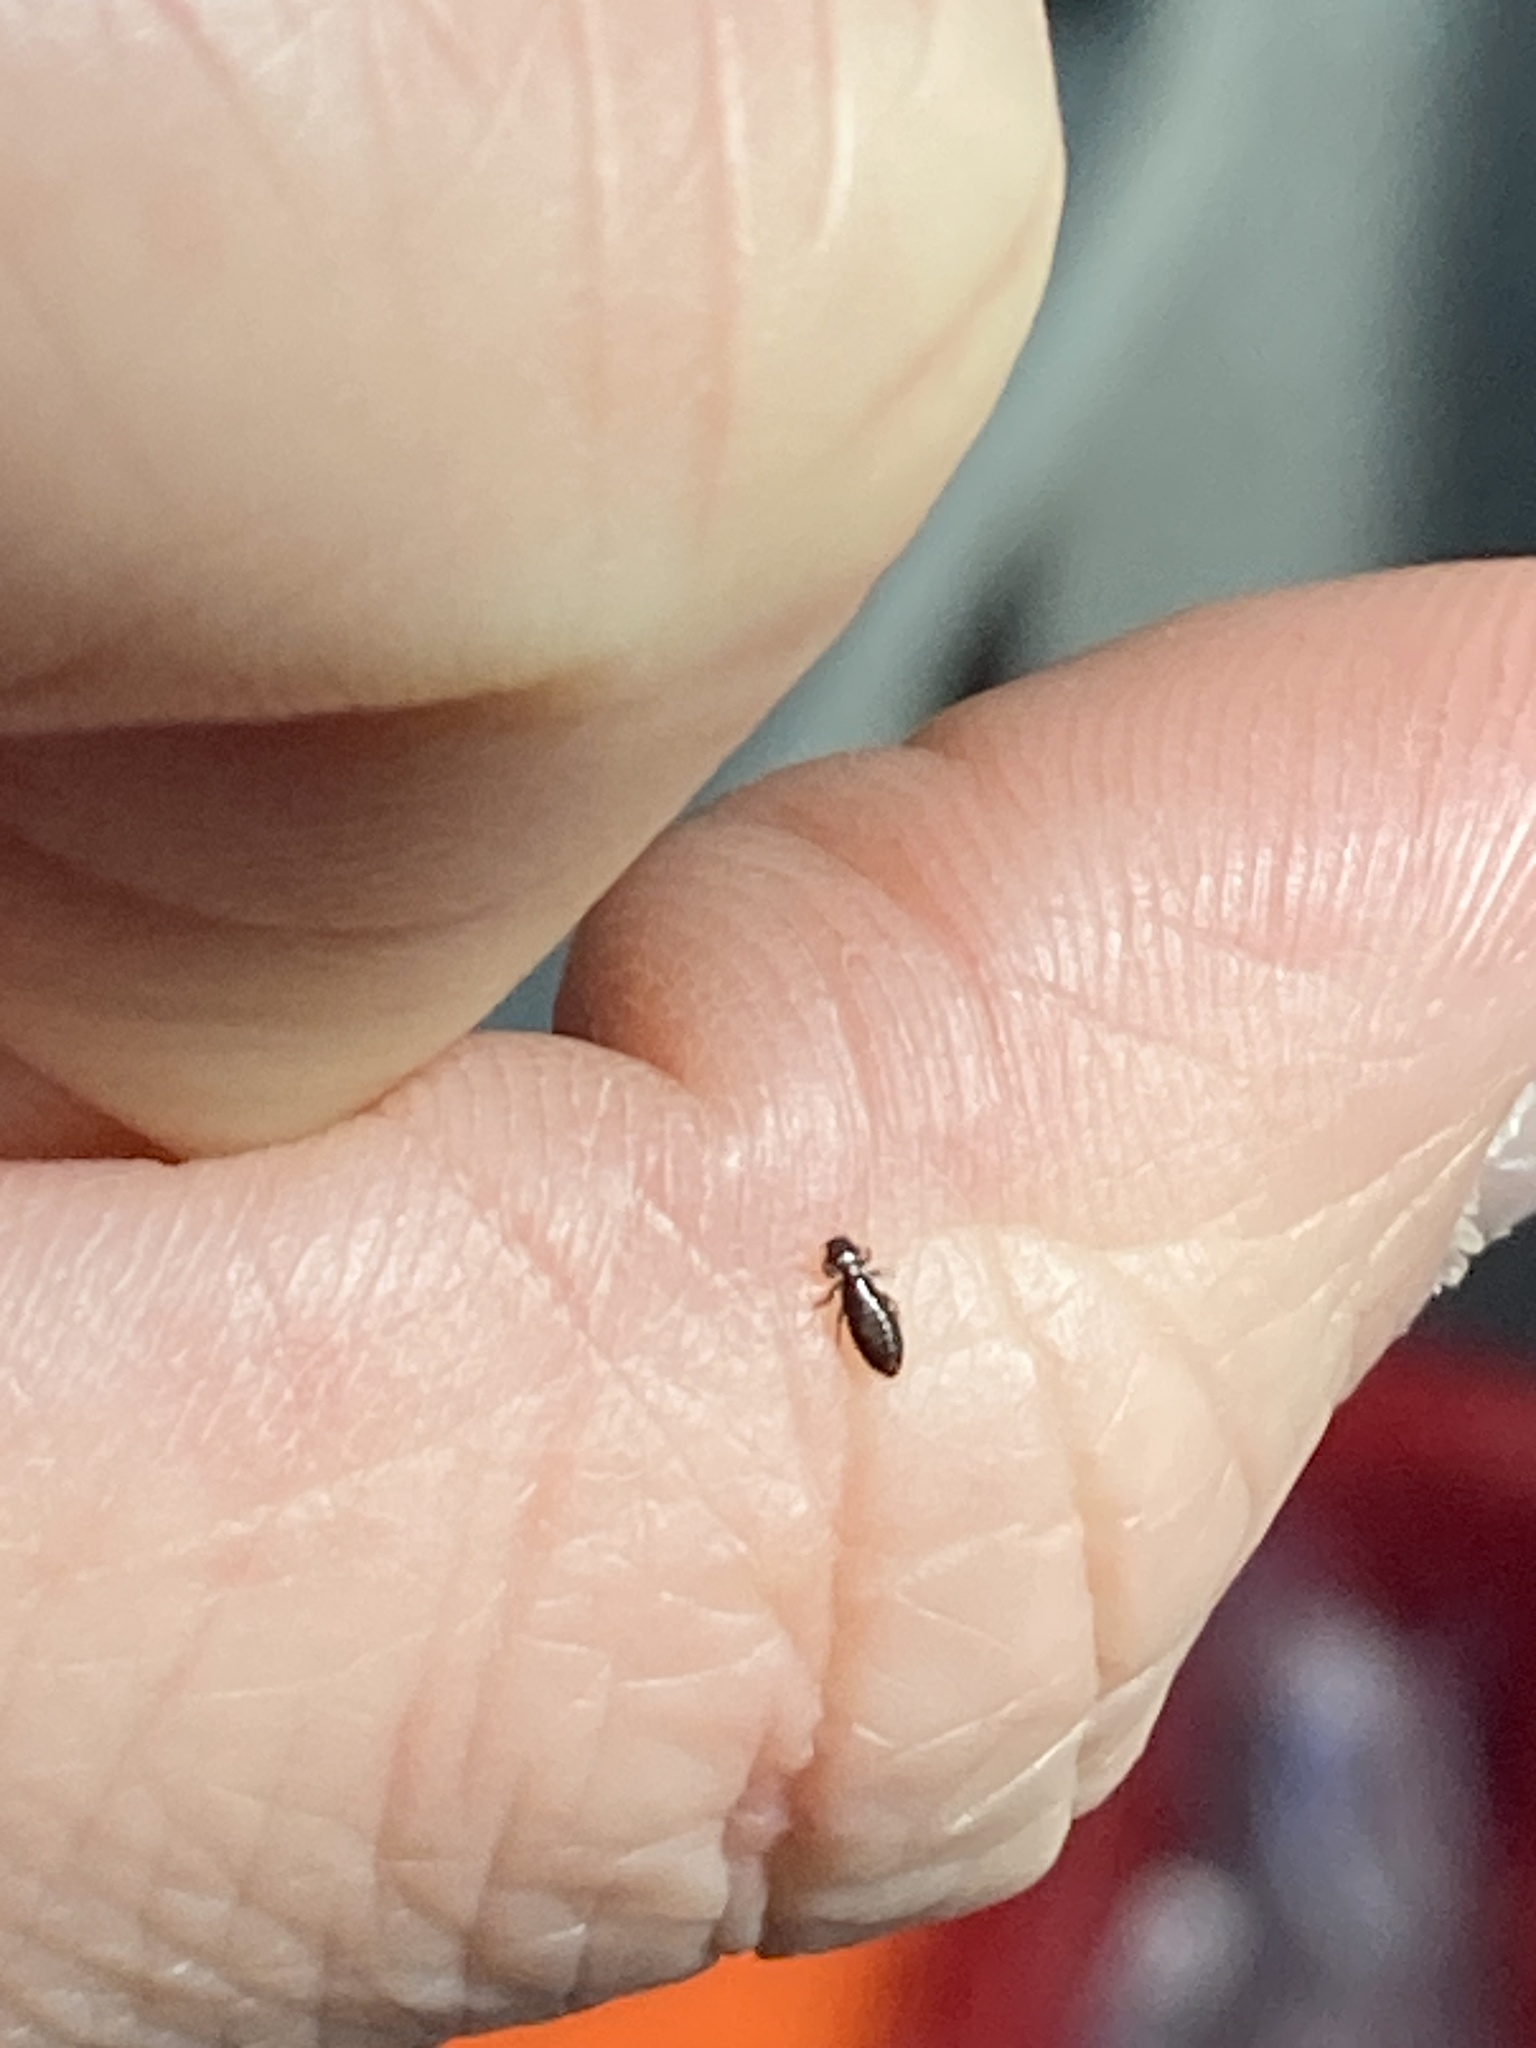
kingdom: Animalia
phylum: Arthropoda
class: Insecta
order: Psocodea
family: Ancistronidae
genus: Actornithophilus
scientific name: Actornithophilus piceus
